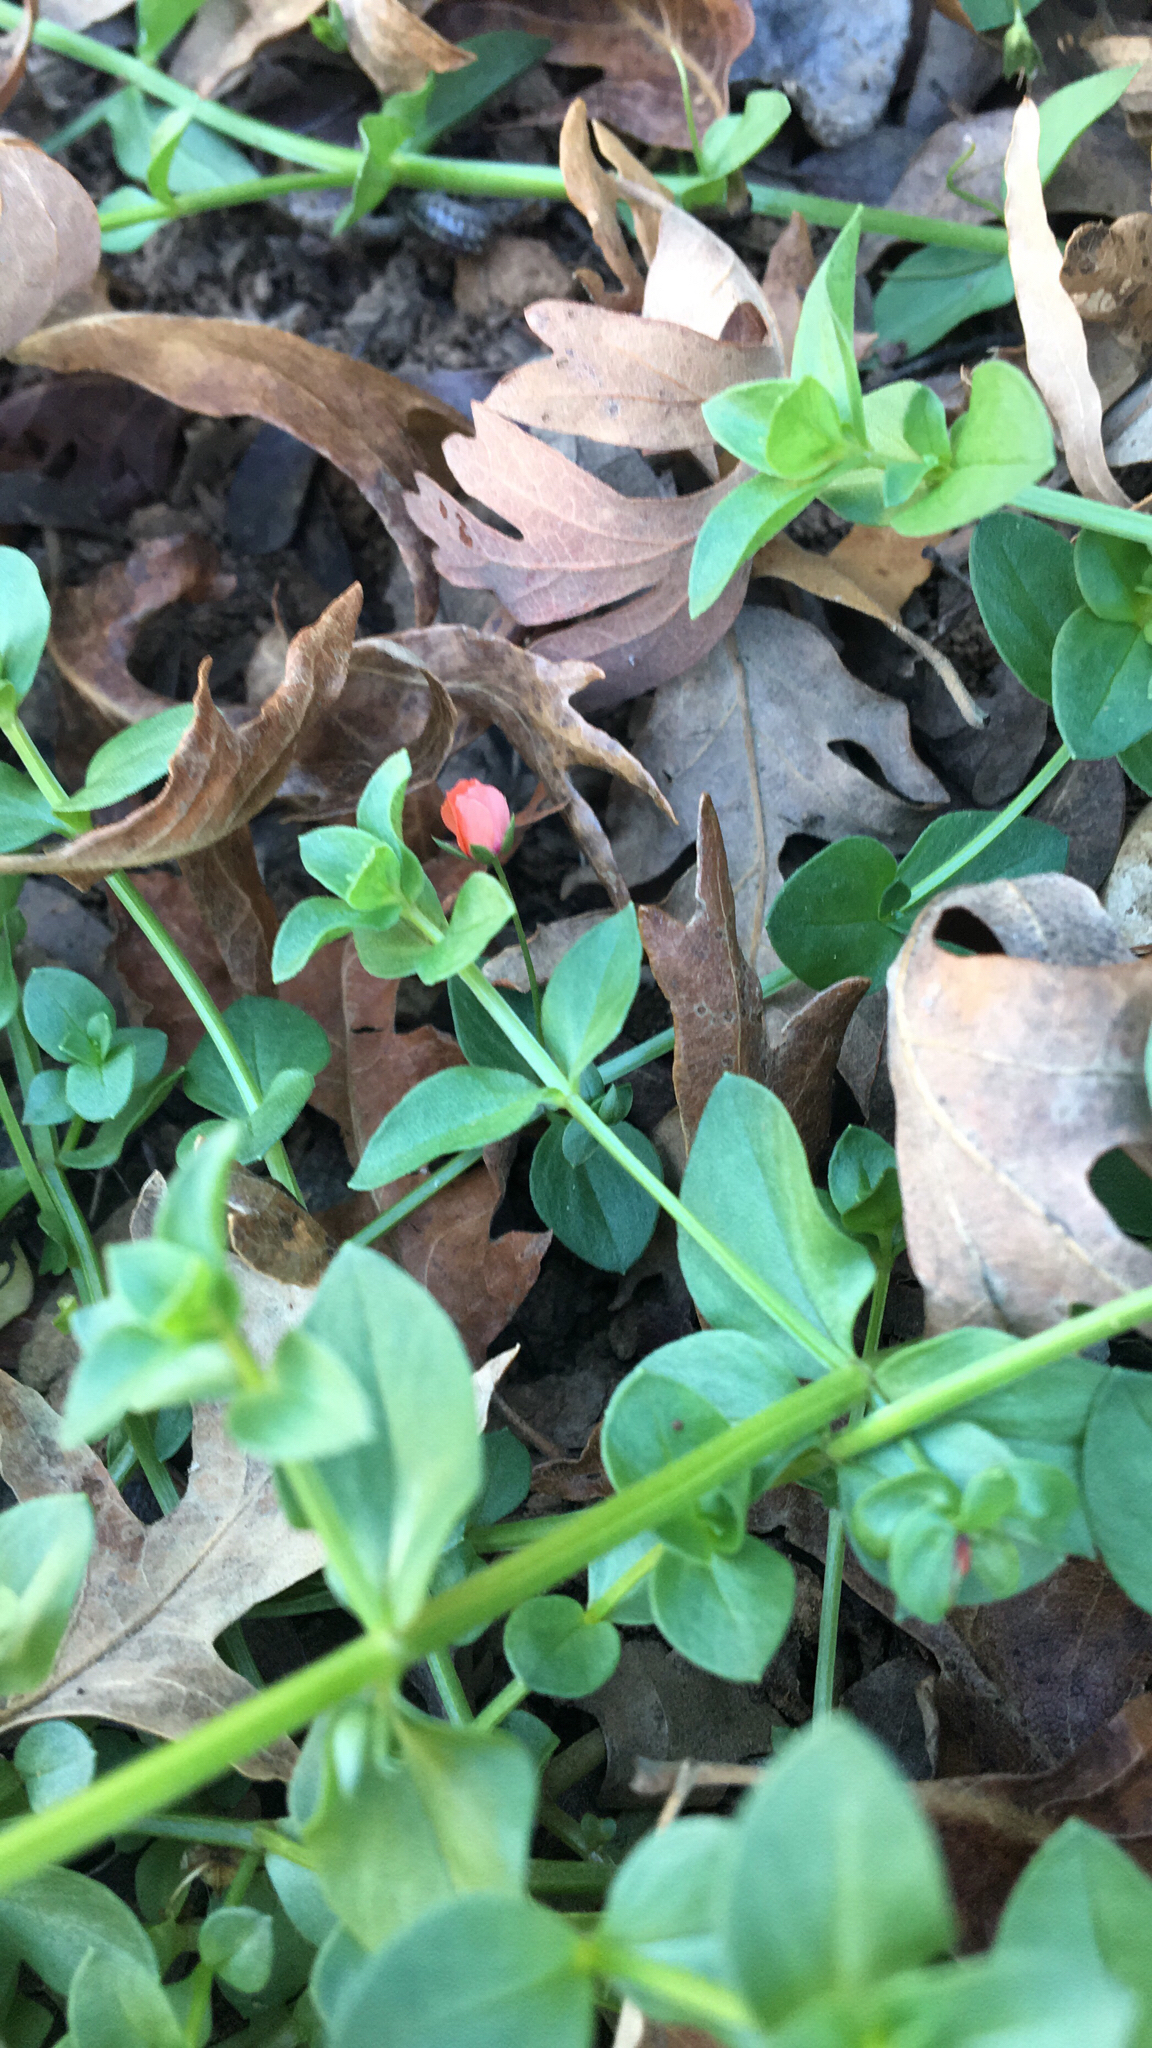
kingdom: Plantae
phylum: Tracheophyta
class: Magnoliopsida
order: Ericales
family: Primulaceae
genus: Lysimachia
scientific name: Lysimachia arvensis
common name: Scarlet pimpernel
